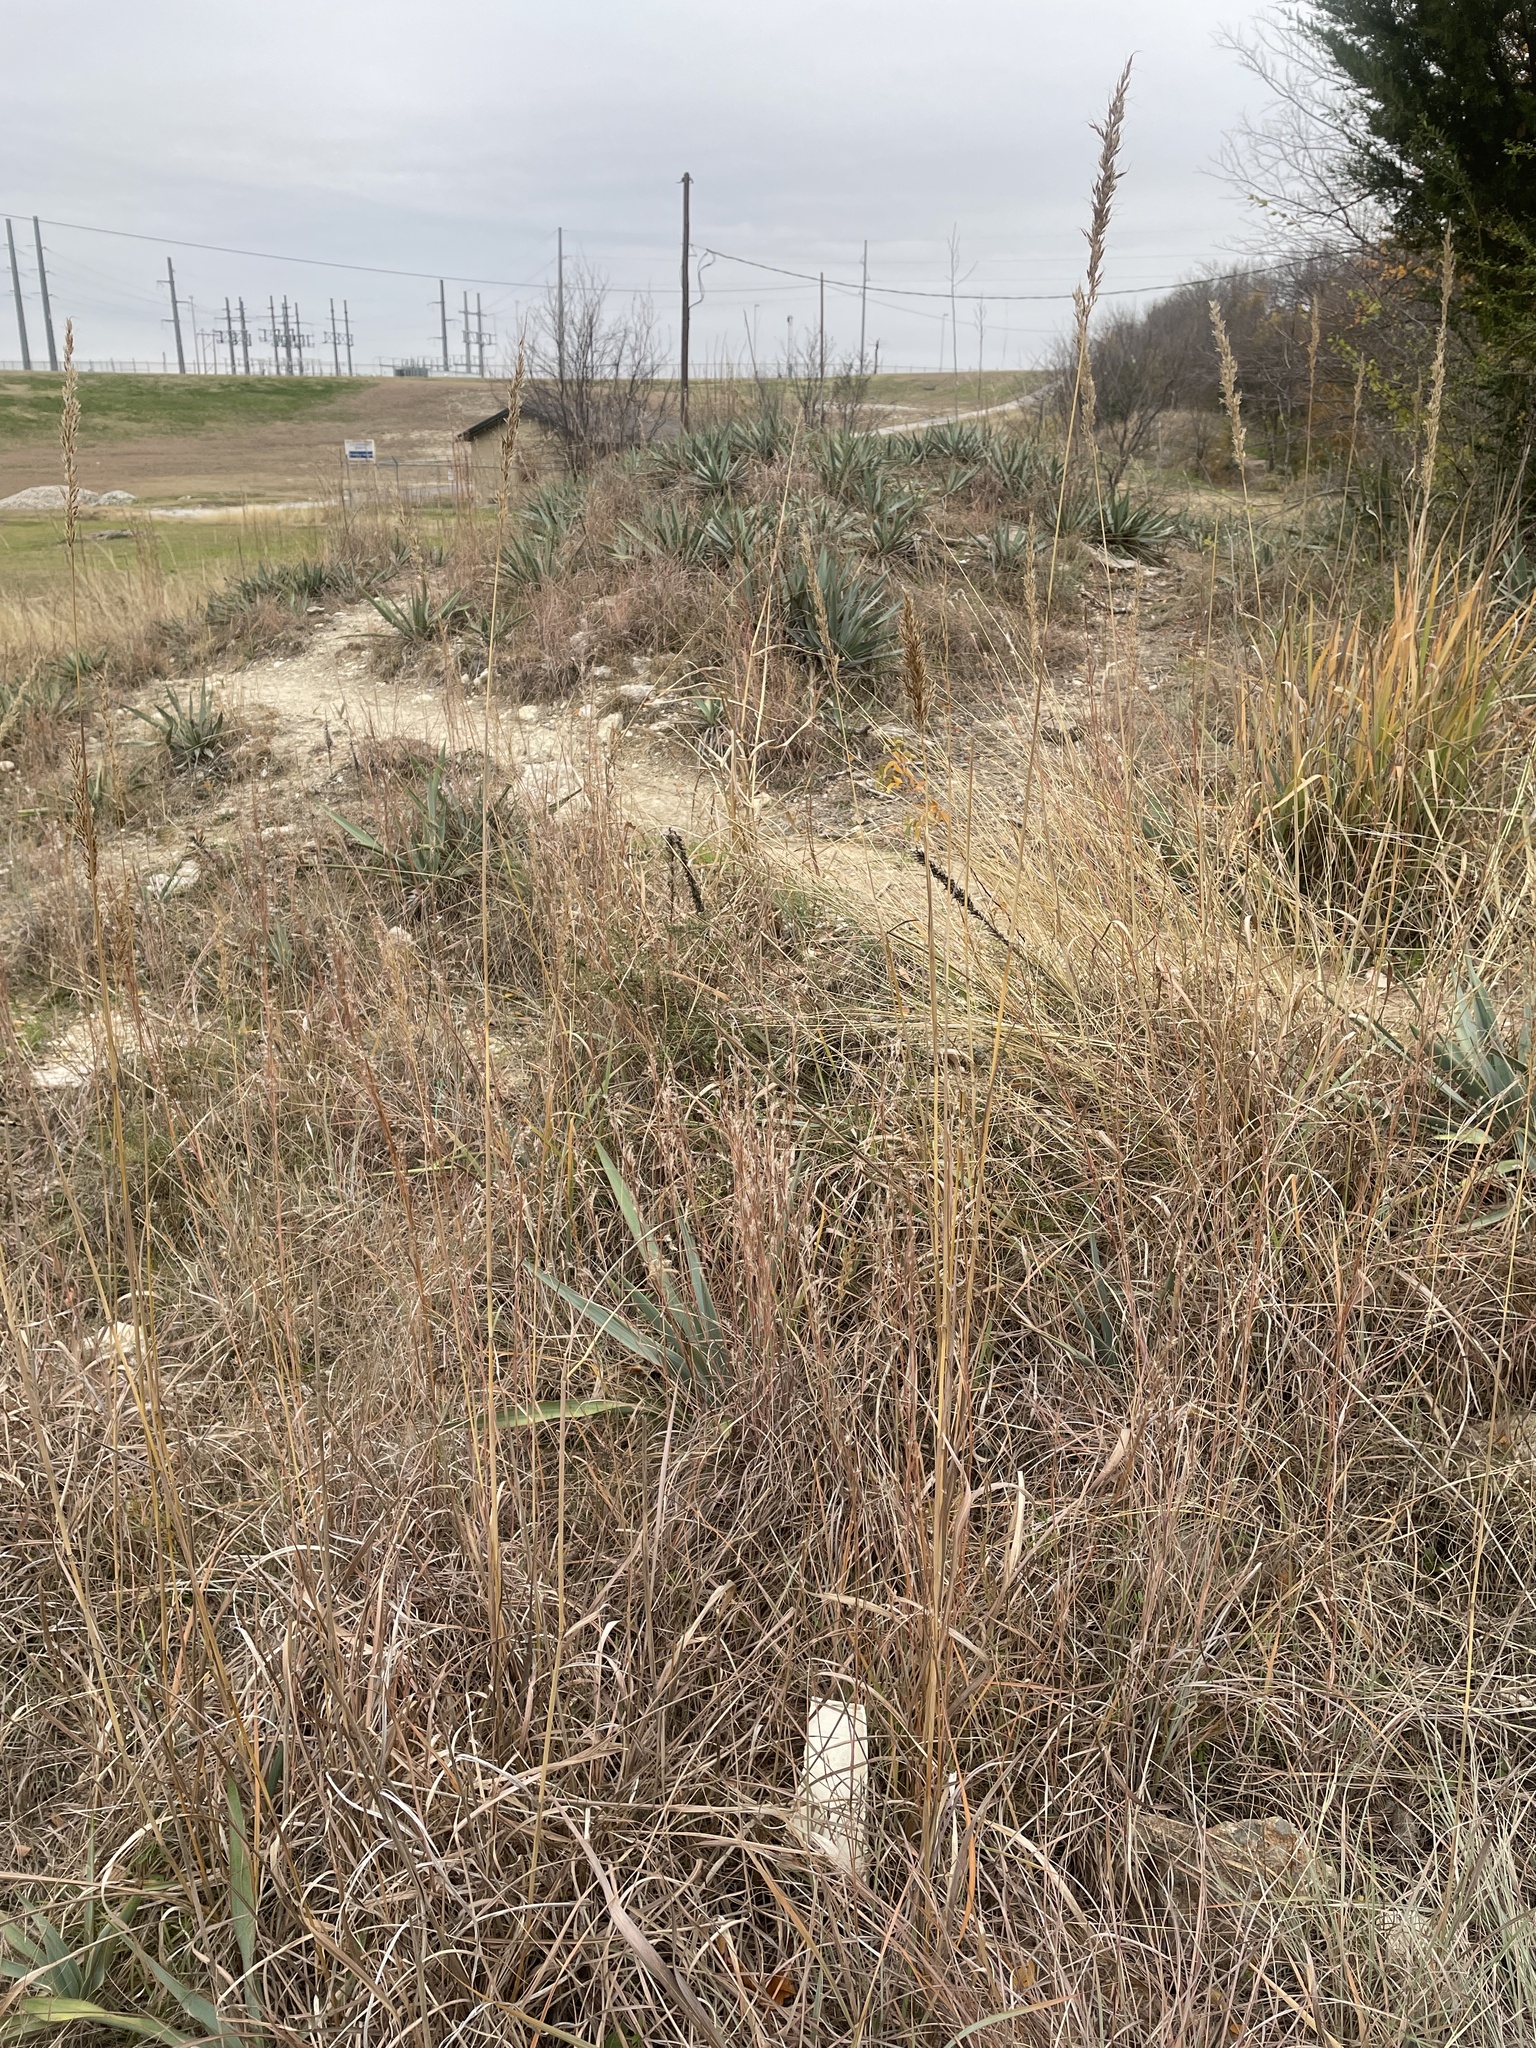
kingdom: Plantae
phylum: Tracheophyta
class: Liliopsida
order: Poales
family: Poaceae
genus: Sorghastrum
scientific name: Sorghastrum nutans
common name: Indian grass
